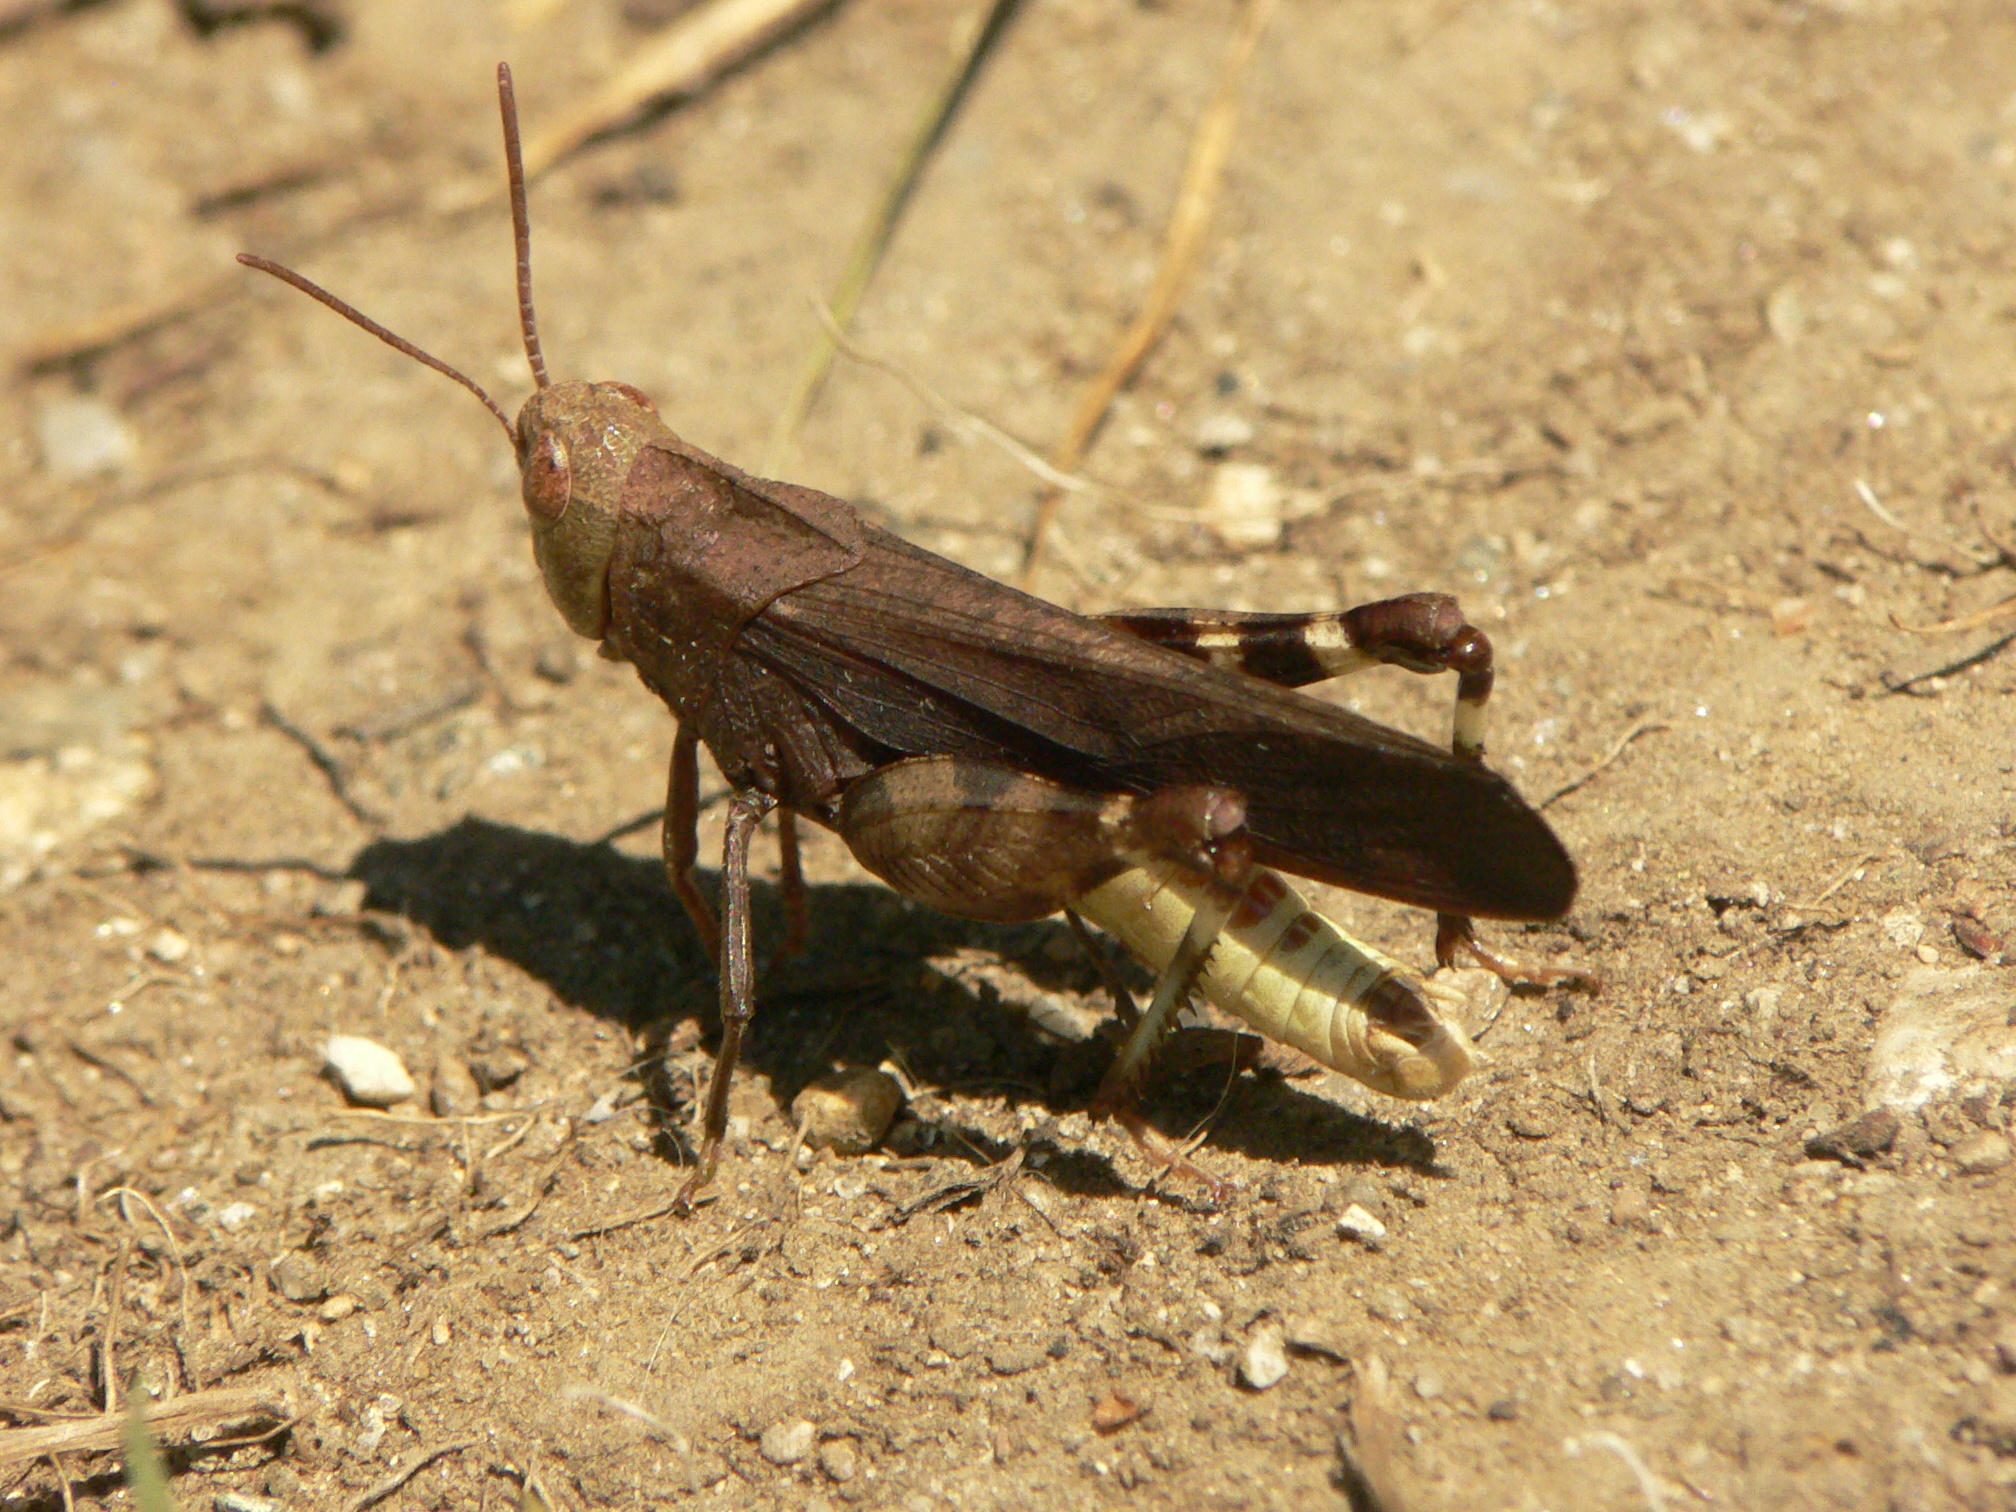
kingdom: Animalia
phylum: Arthropoda
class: Insecta
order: Orthoptera
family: Acrididae
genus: Arphia
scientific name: Arphia sulphurea
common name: Spring yellow-winged locust
